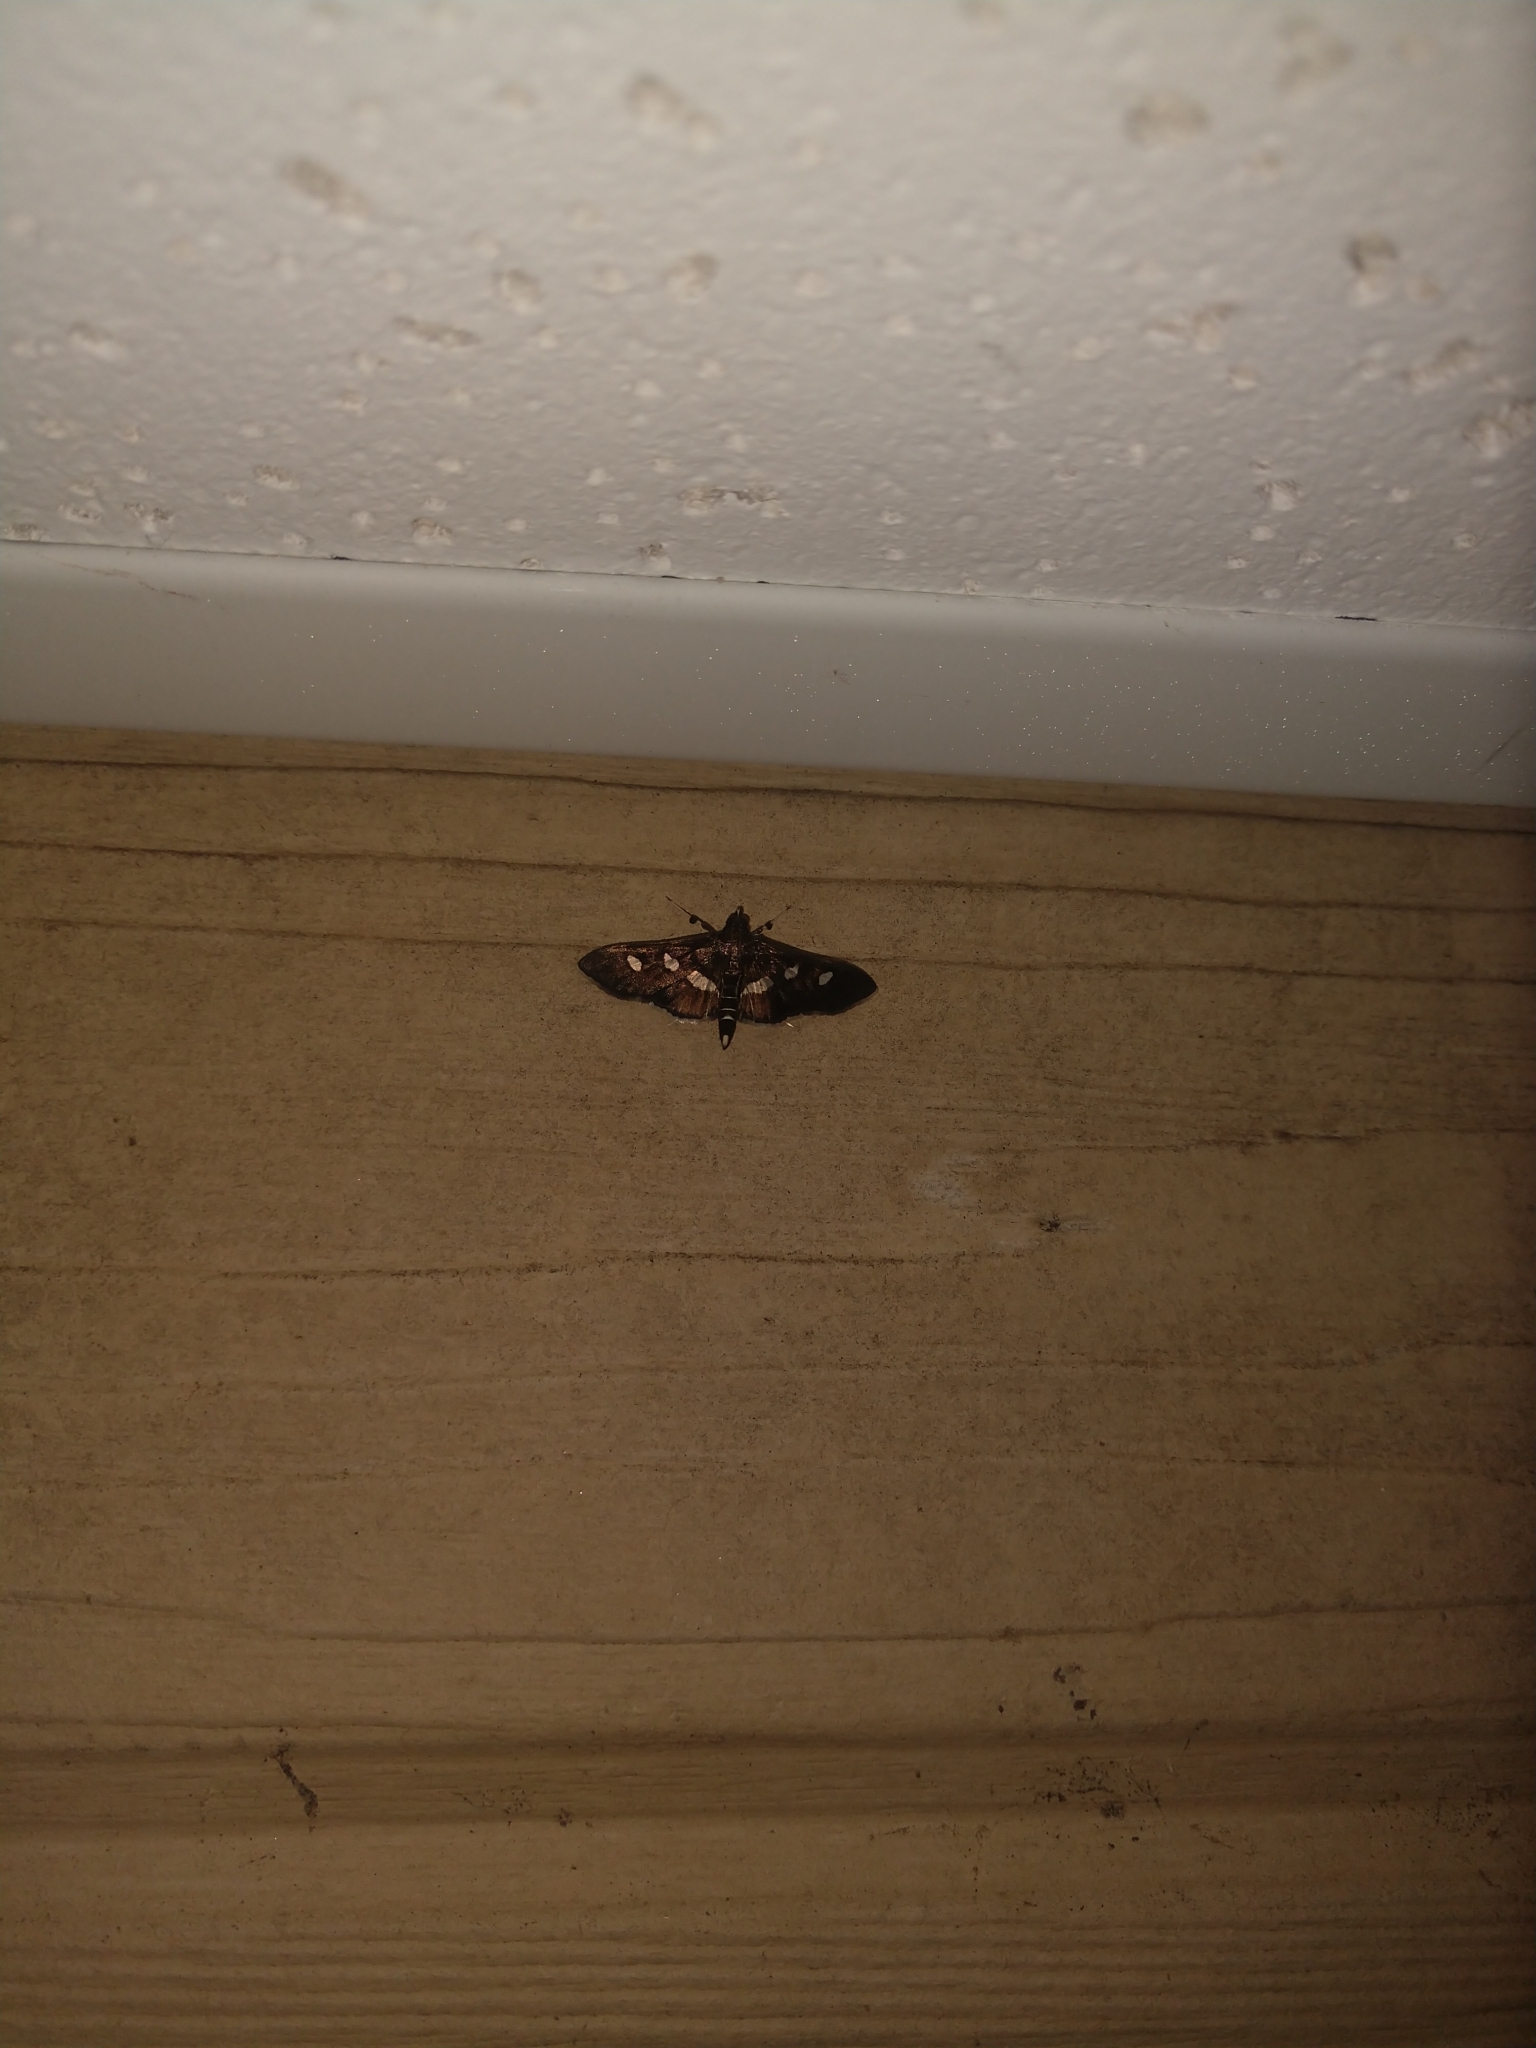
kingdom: Animalia
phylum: Arthropoda
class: Insecta
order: Lepidoptera
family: Crambidae
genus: Desmia
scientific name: Desmia
